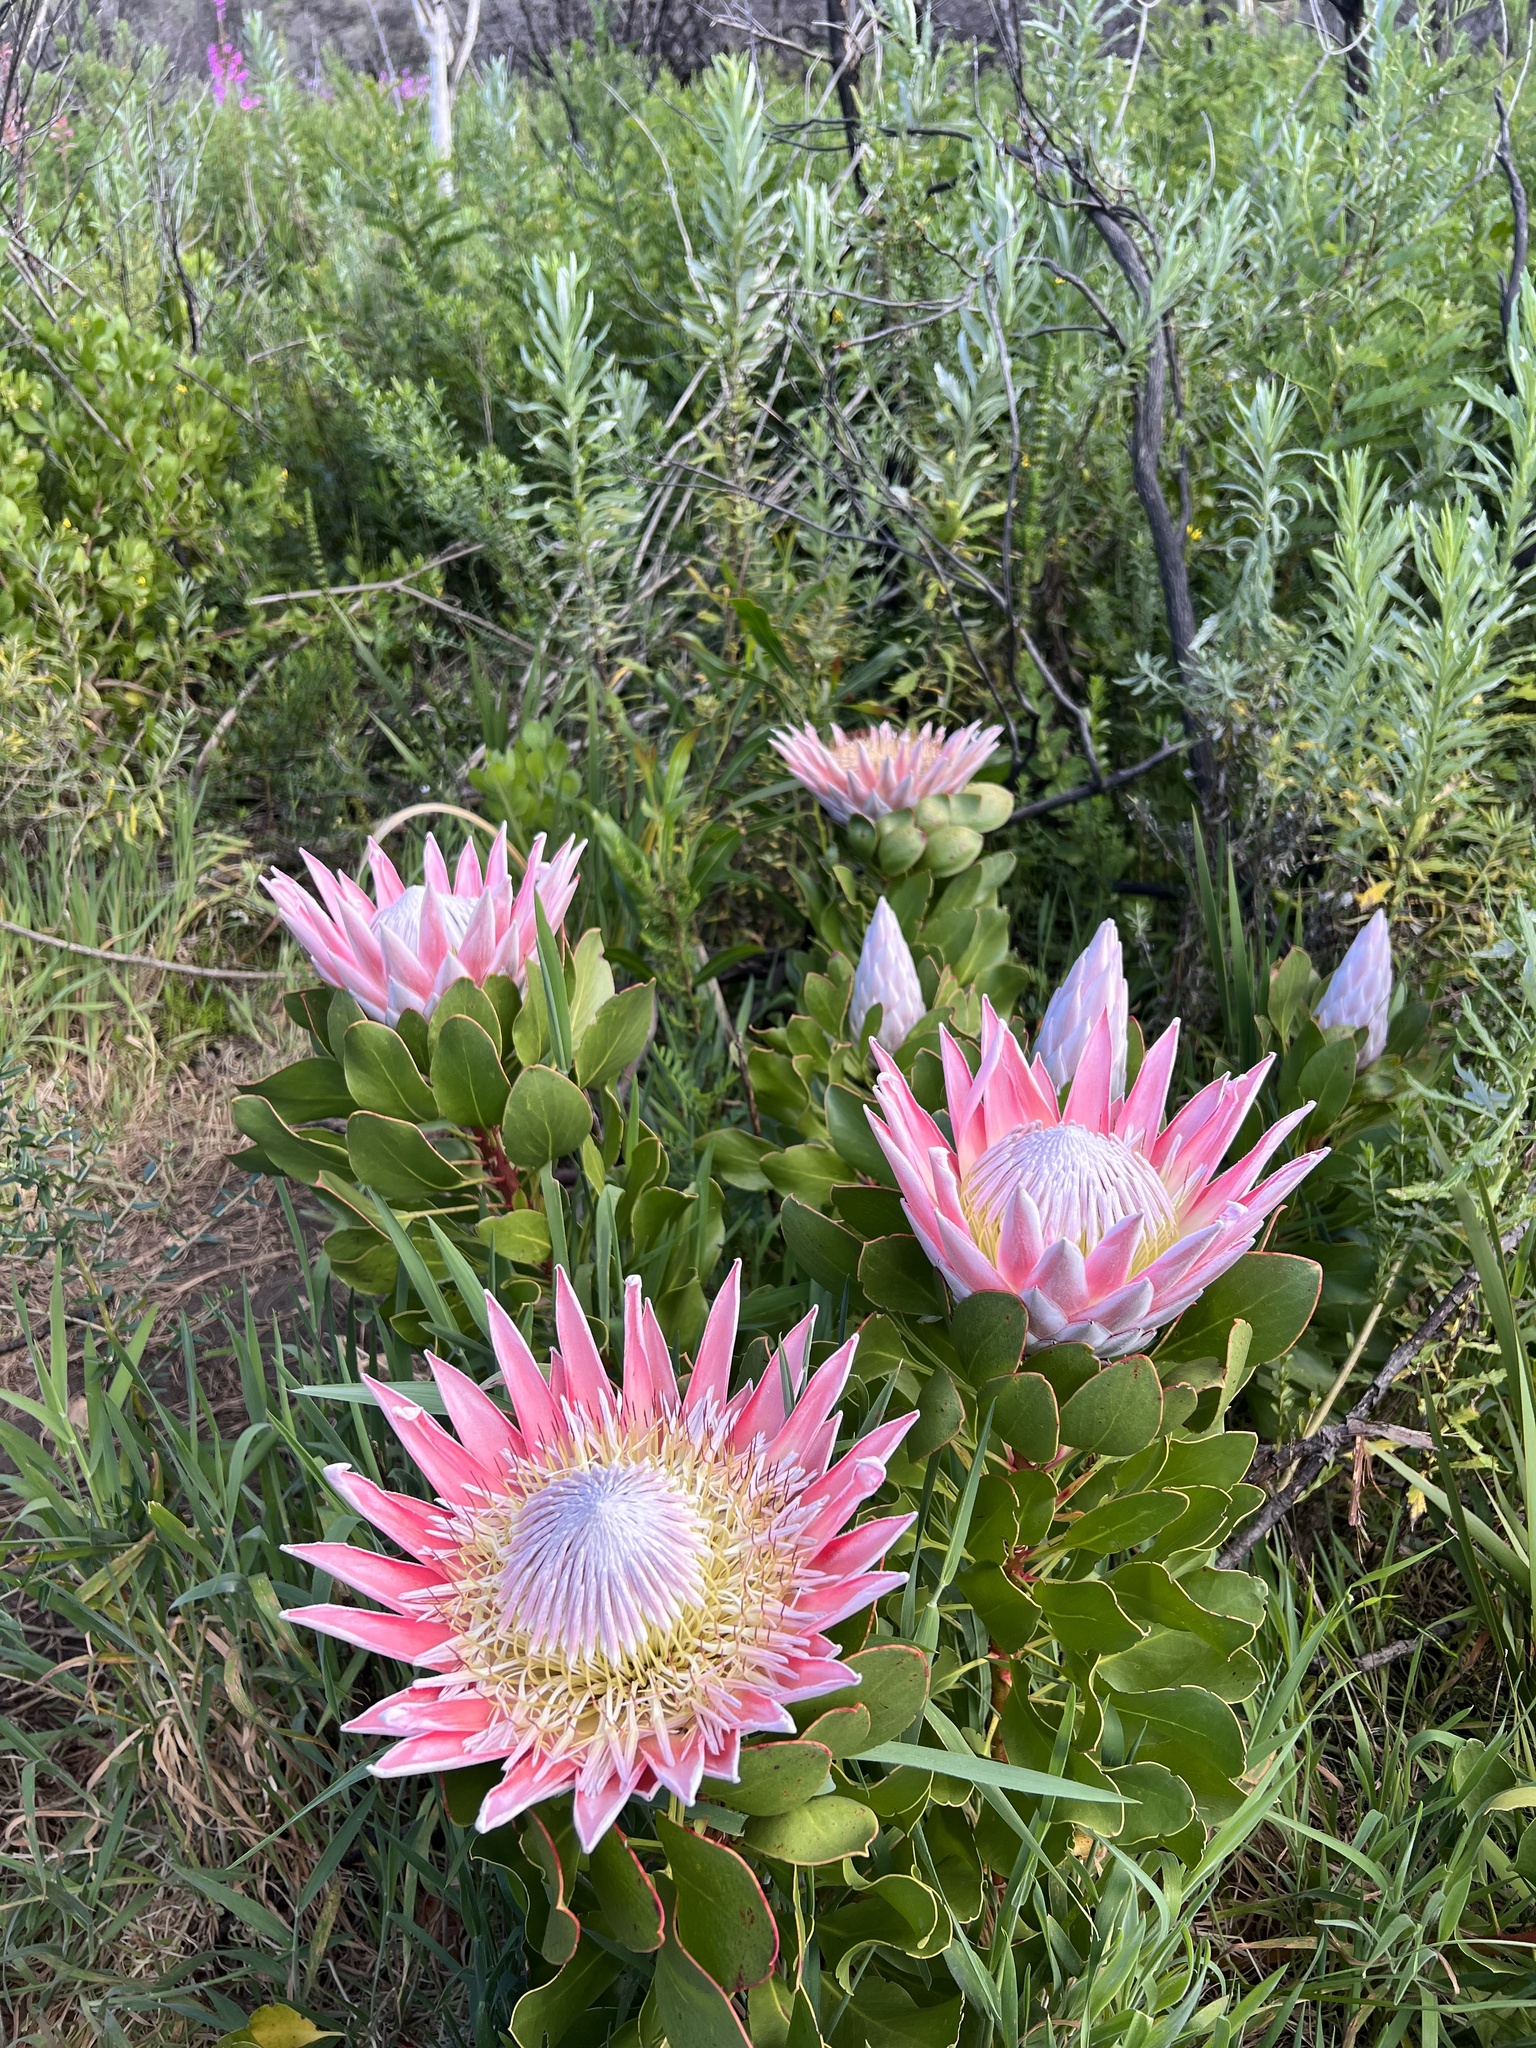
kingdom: Plantae
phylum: Tracheophyta
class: Magnoliopsida
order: Proteales
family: Proteaceae
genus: Protea
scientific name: Protea cynaroides
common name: King protea
